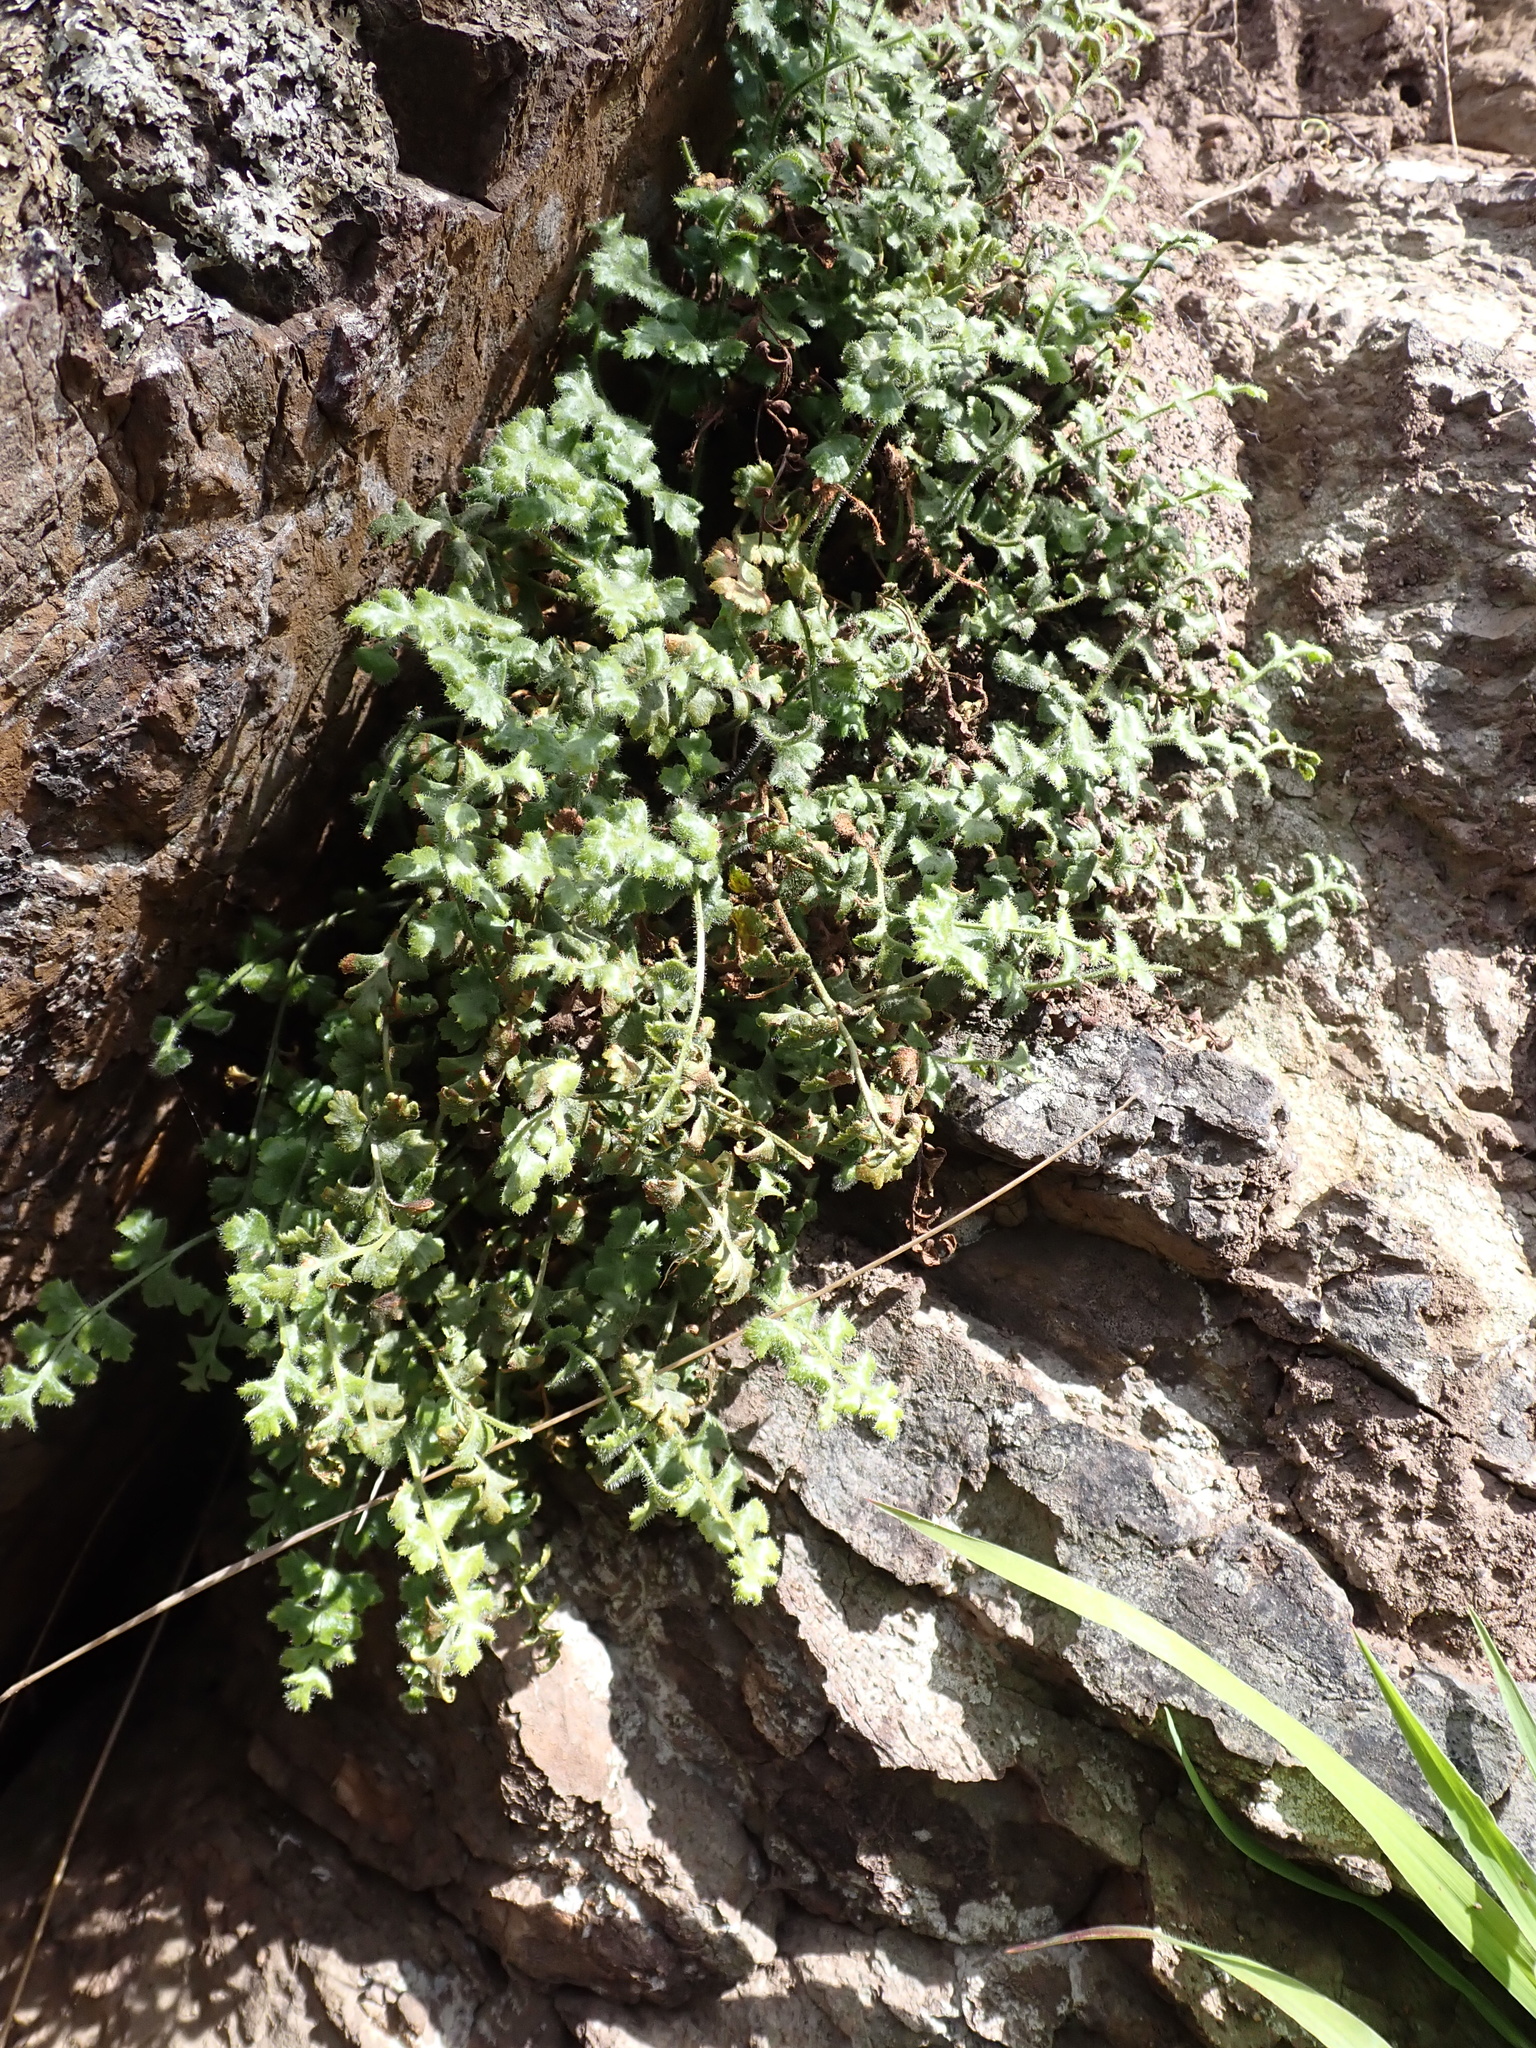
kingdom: Plantae
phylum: Tracheophyta
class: Polypodiopsida
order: Polypodiales
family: Aspleniaceae
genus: Asplenium
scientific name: Asplenium subglandulosum
